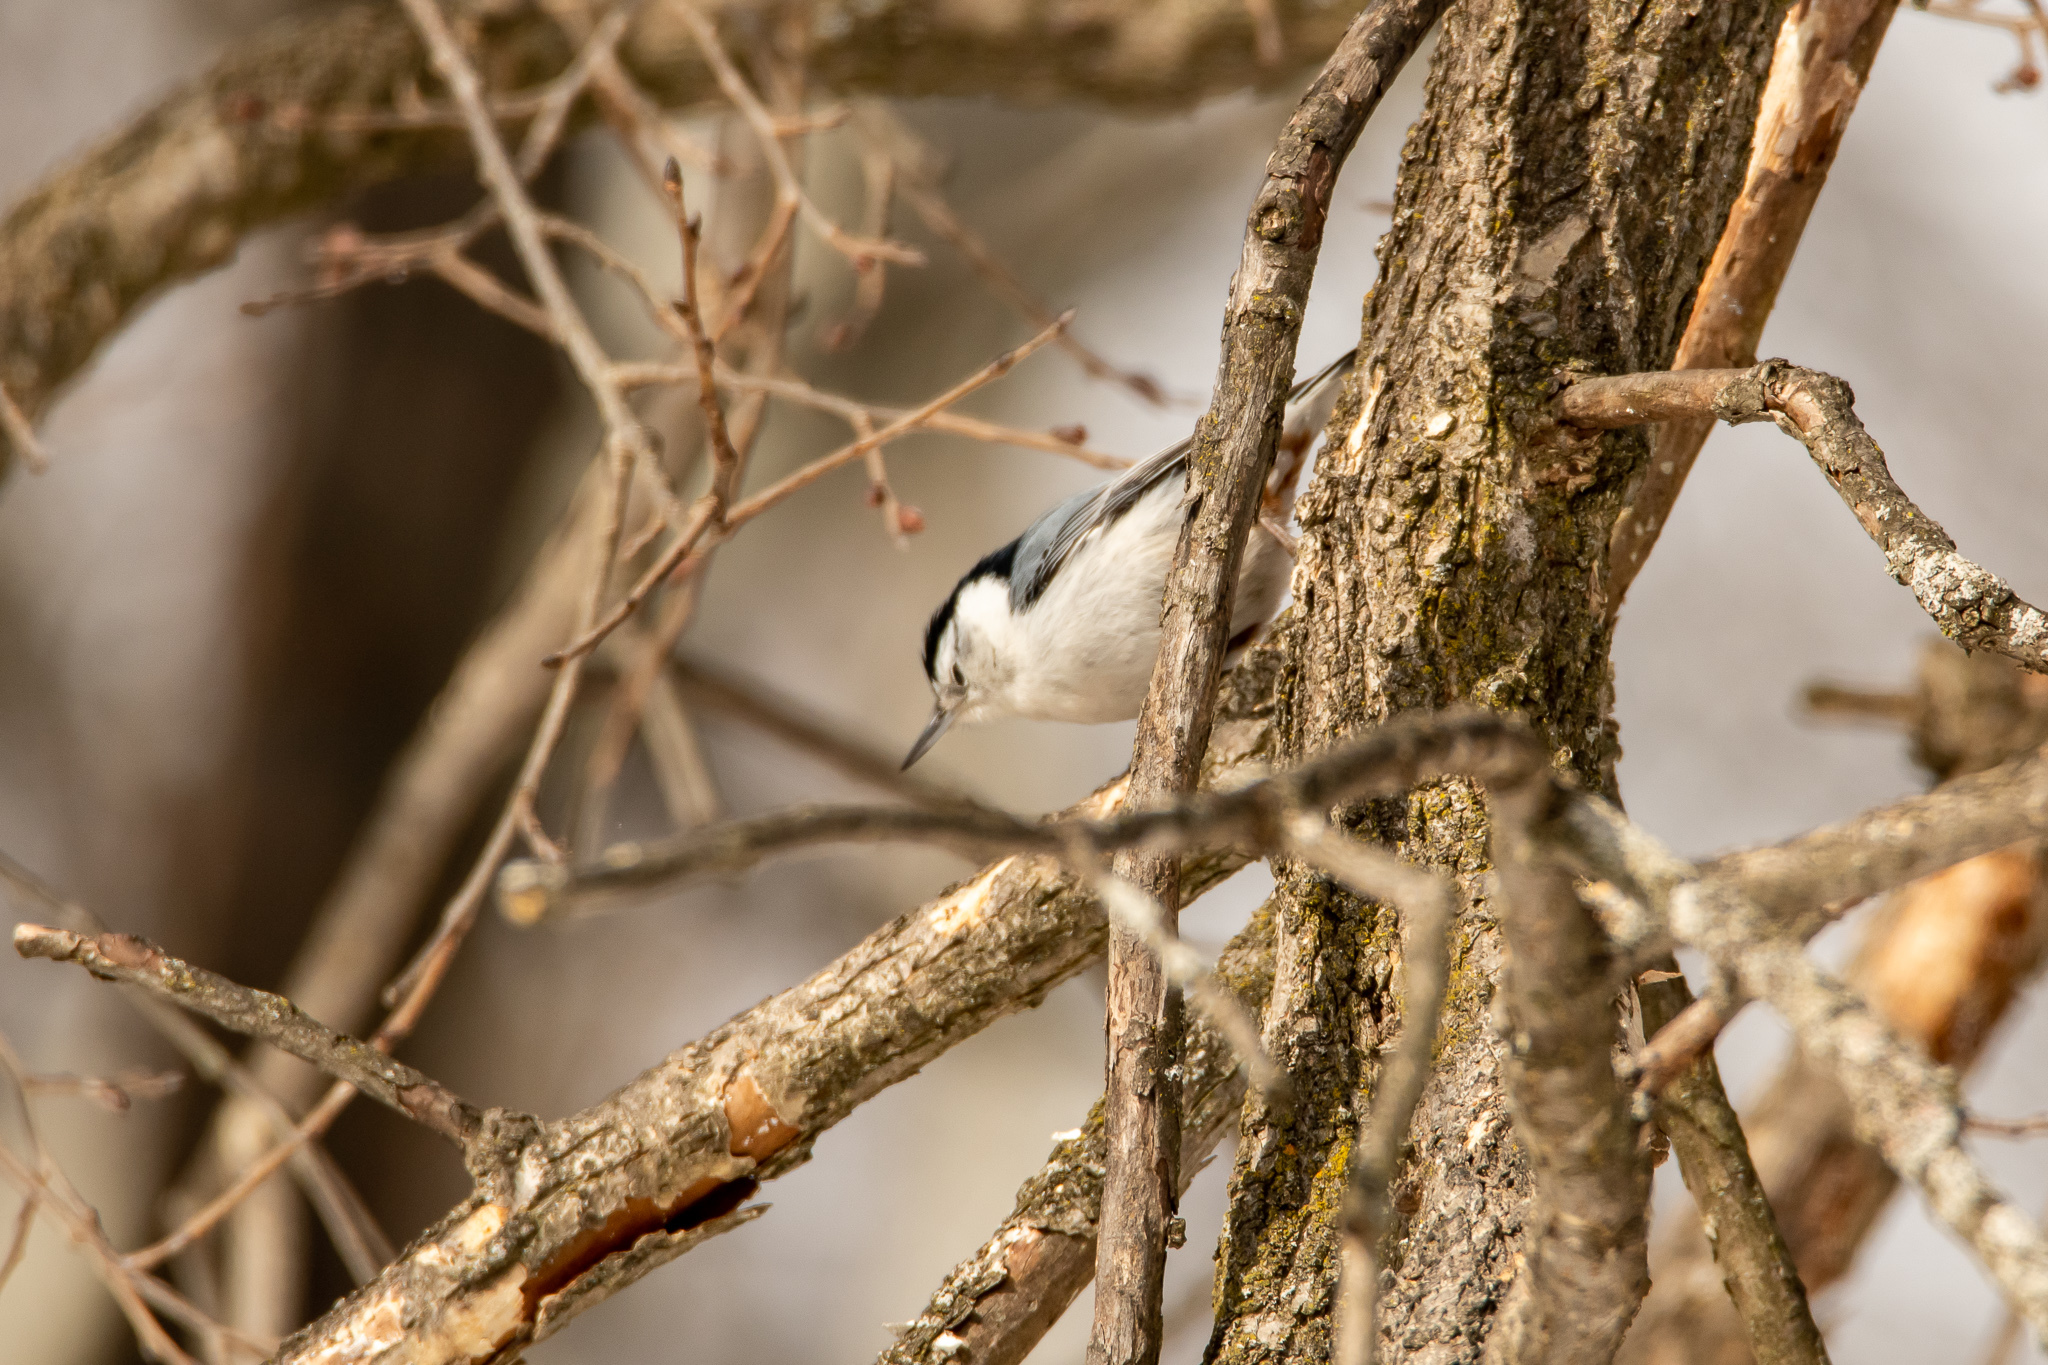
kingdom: Animalia
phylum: Chordata
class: Aves
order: Passeriformes
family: Sittidae
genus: Sitta
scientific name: Sitta carolinensis
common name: White-breasted nuthatch
